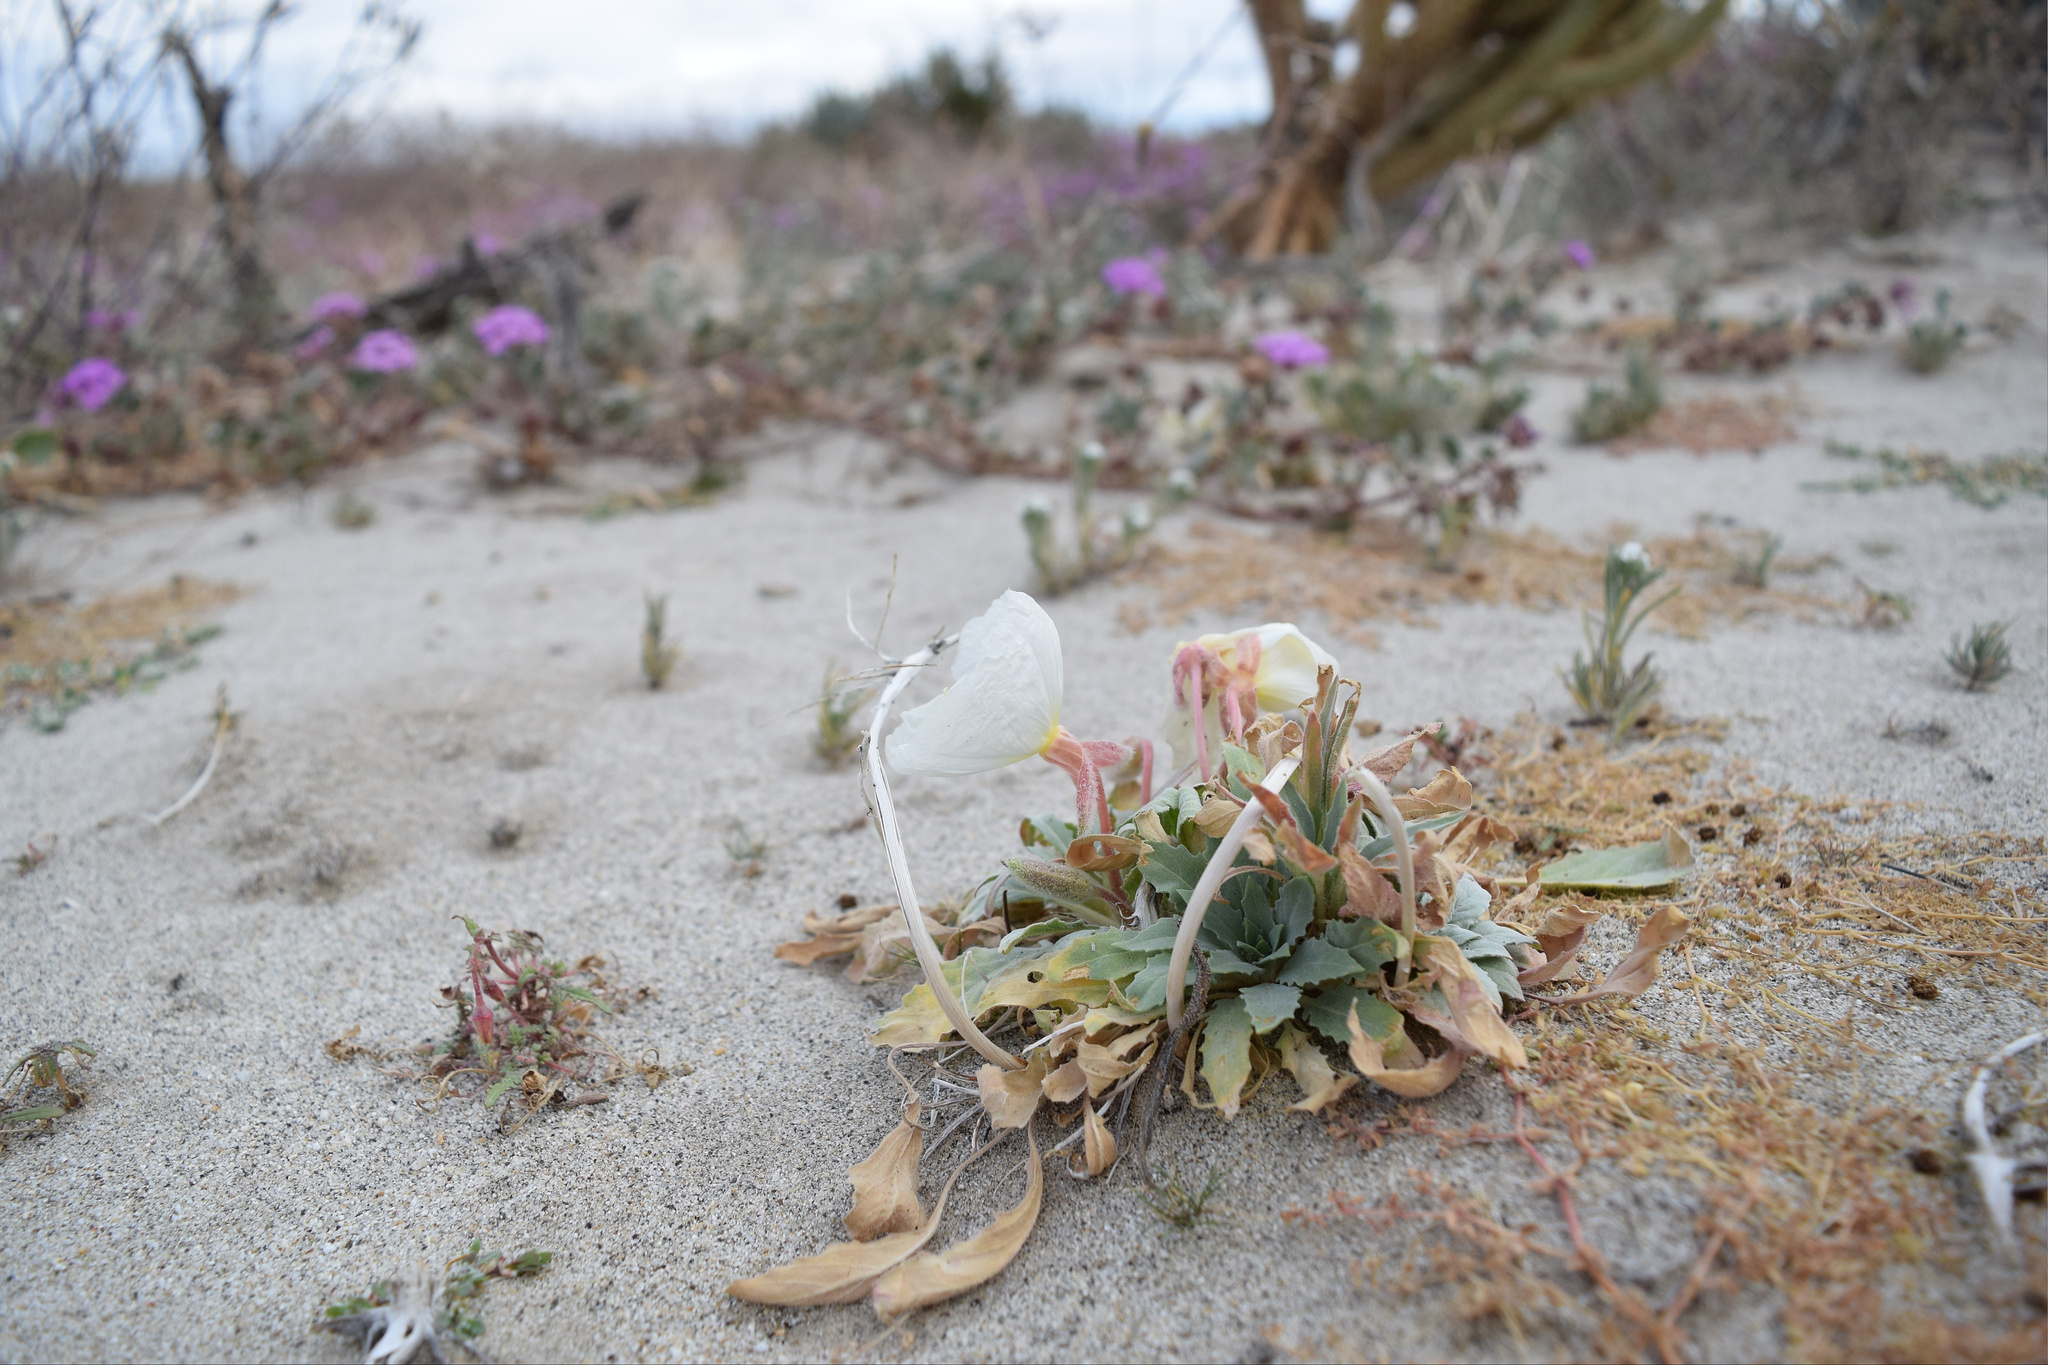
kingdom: Plantae
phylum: Tracheophyta
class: Magnoliopsida
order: Myrtales
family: Onagraceae
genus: Oenothera
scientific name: Oenothera deltoides
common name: Basket evening-primrose
